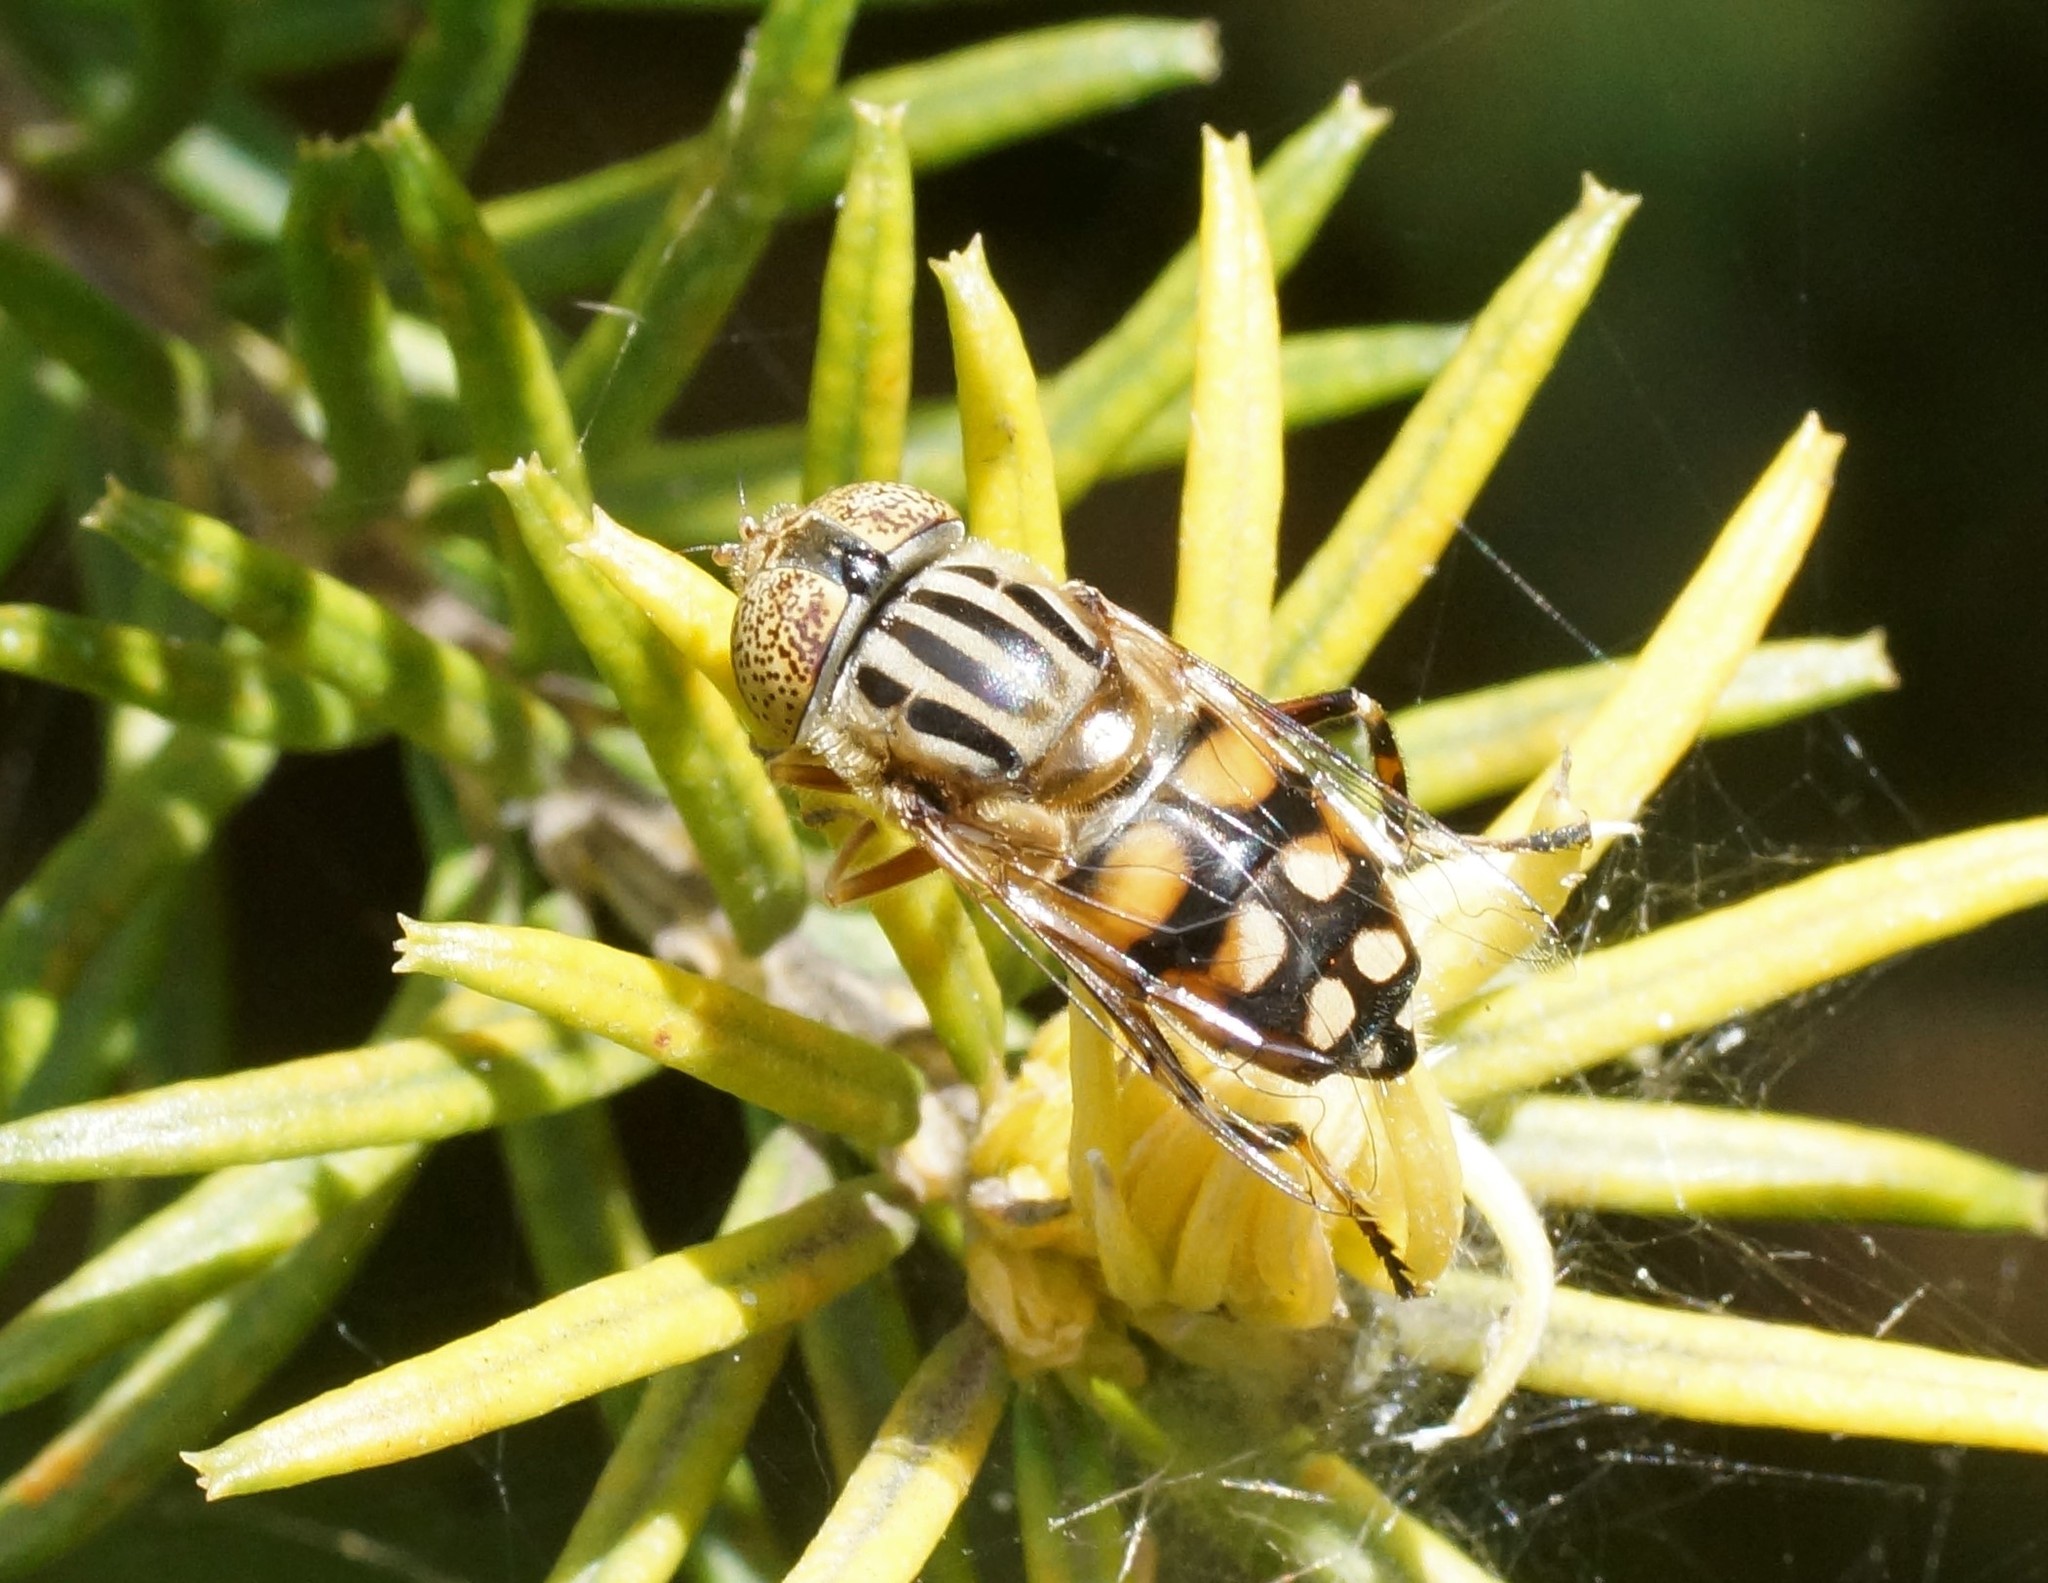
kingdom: Animalia
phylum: Arthropoda
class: Insecta
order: Diptera
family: Syrphidae
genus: Eristalinus
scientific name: Eristalinus punctulatus
